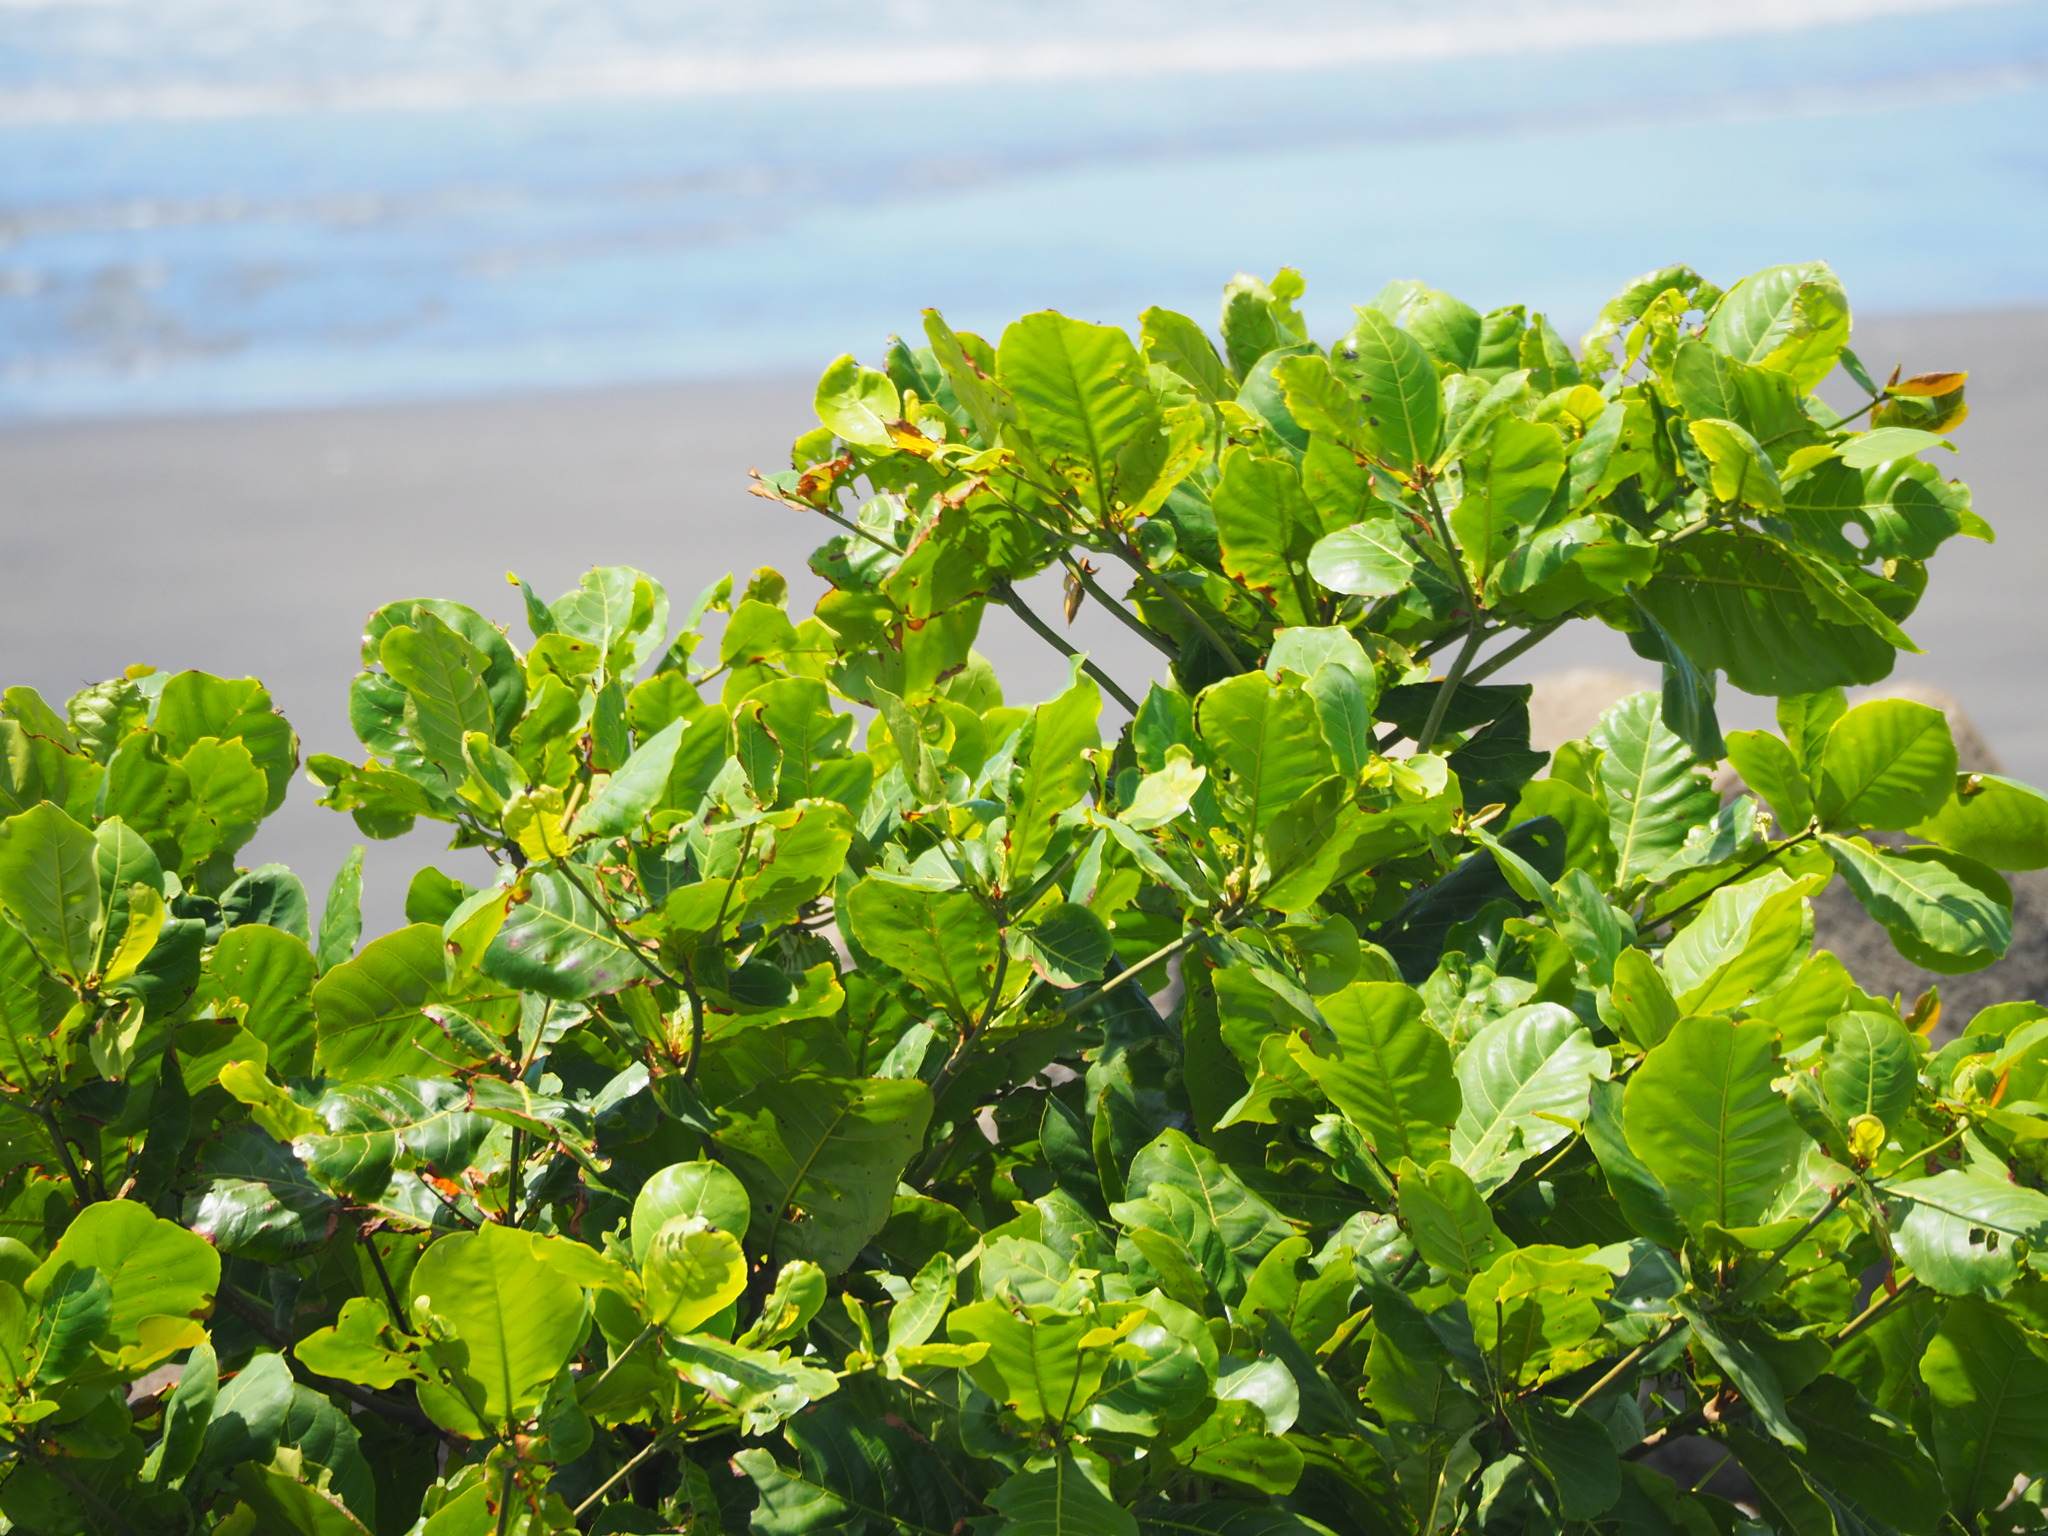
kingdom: Plantae
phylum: Tracheophyta
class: Magnoliopsida
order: Myrtales
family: Combretaceae
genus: Terminalia
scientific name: Terminalia catappa
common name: Tropical almond
